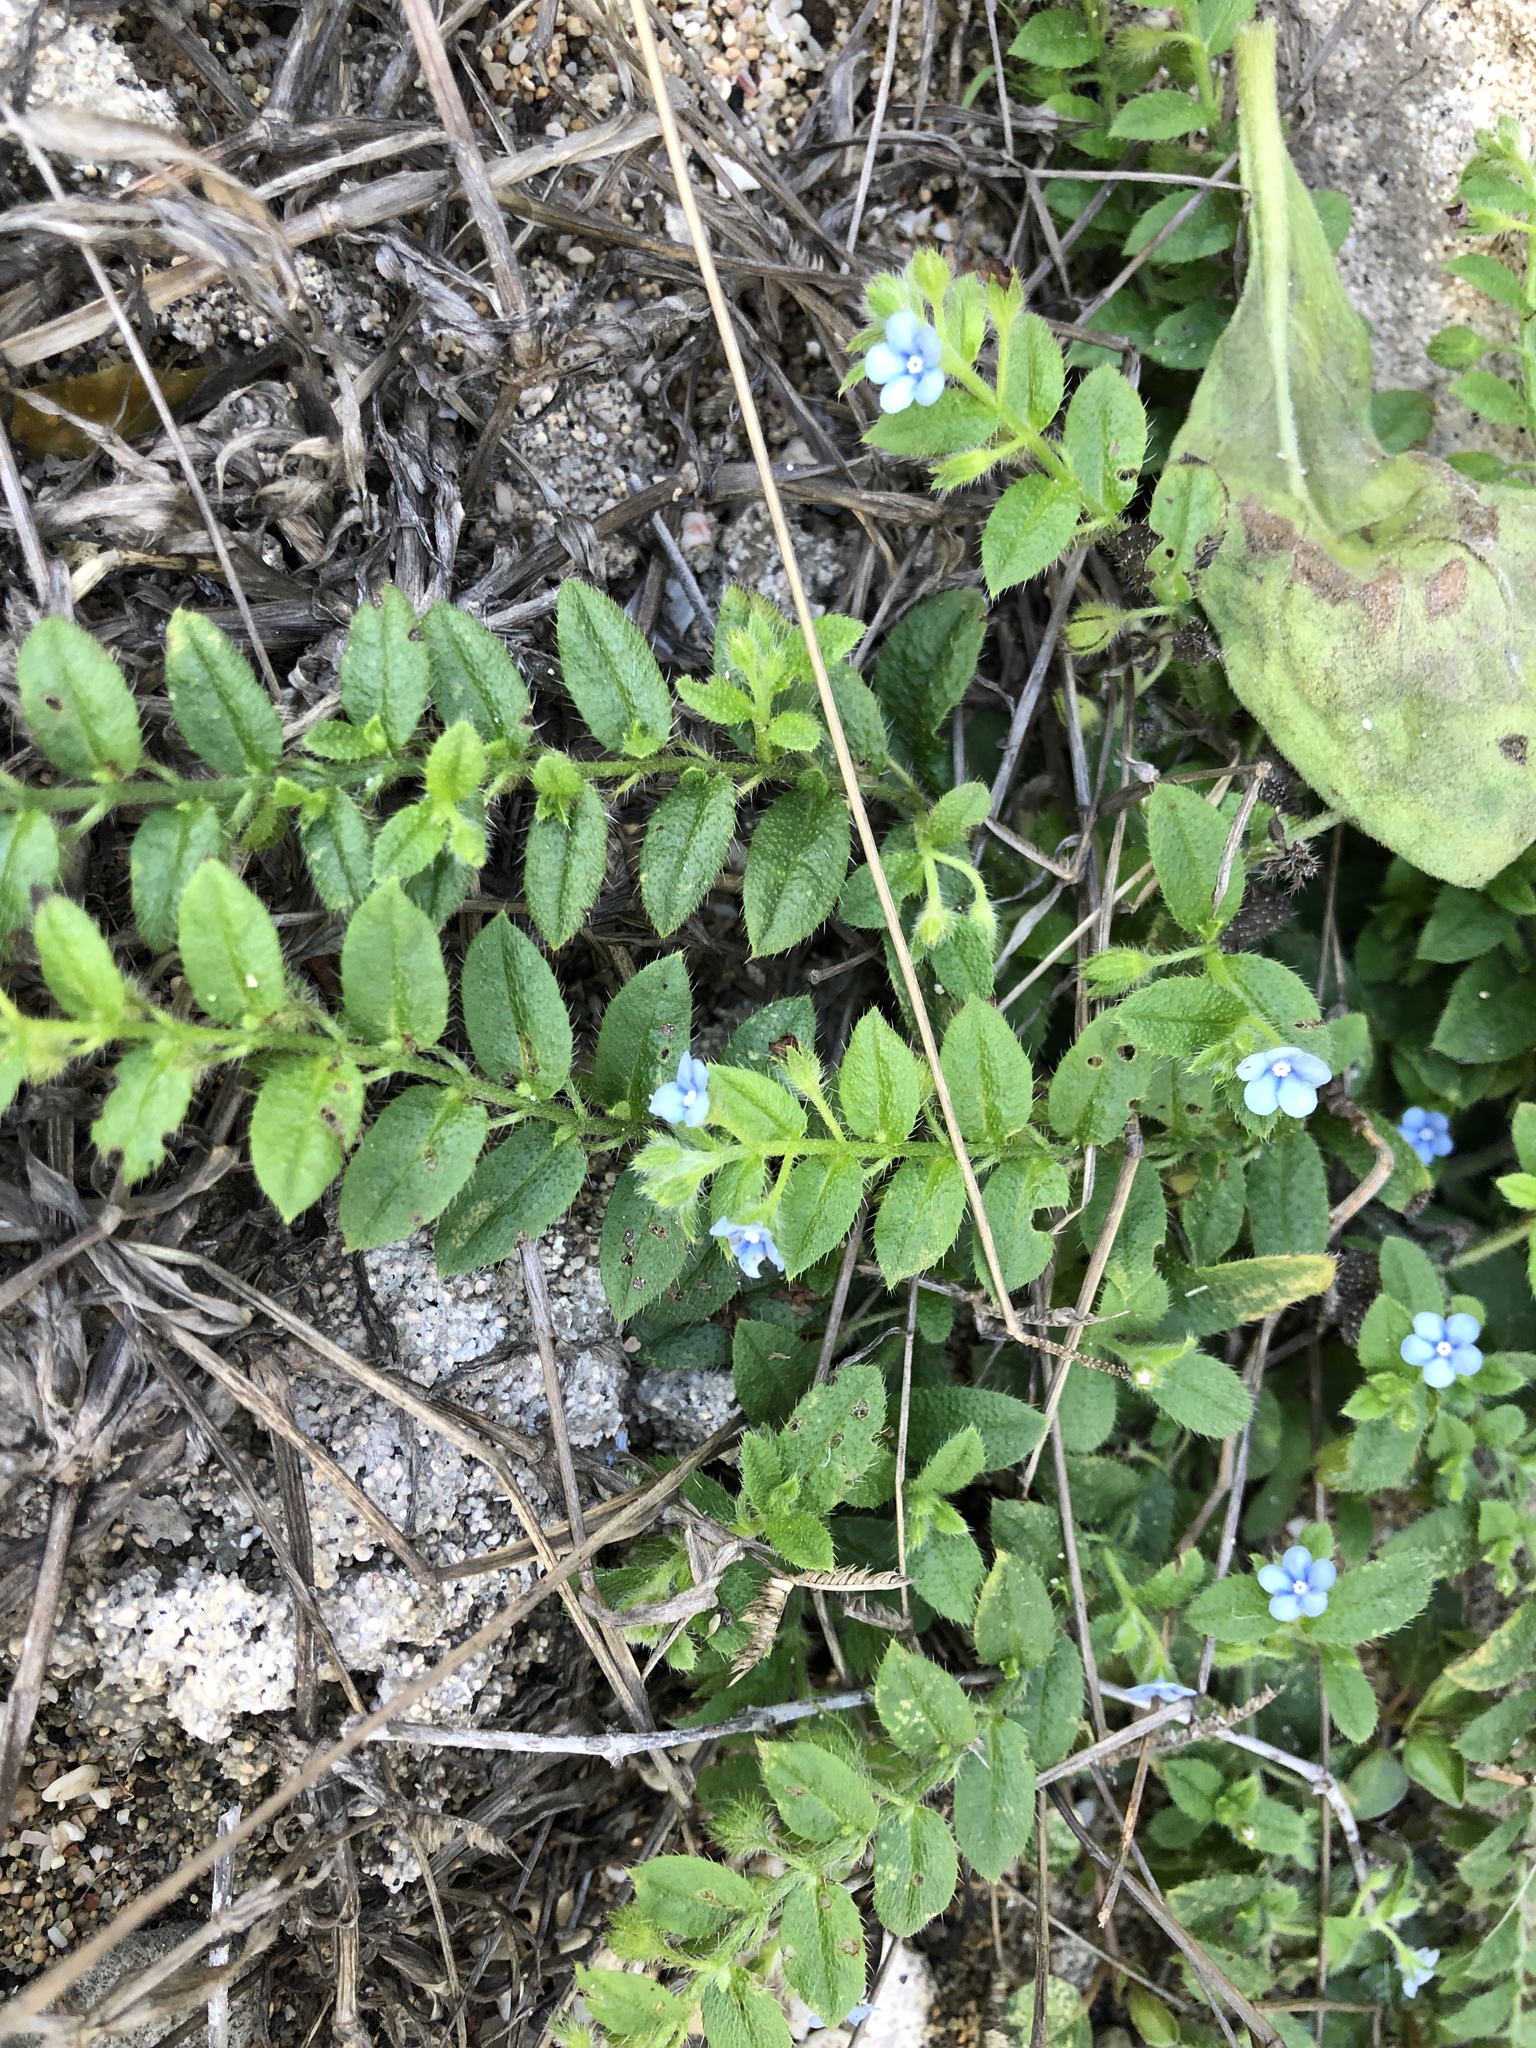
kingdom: Plantae
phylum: Tracheophyta
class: Magnoliopsida
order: Boraginales
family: Boraginaceae
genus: Thyrocarpus
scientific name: Thyrocarpus sampsonii
